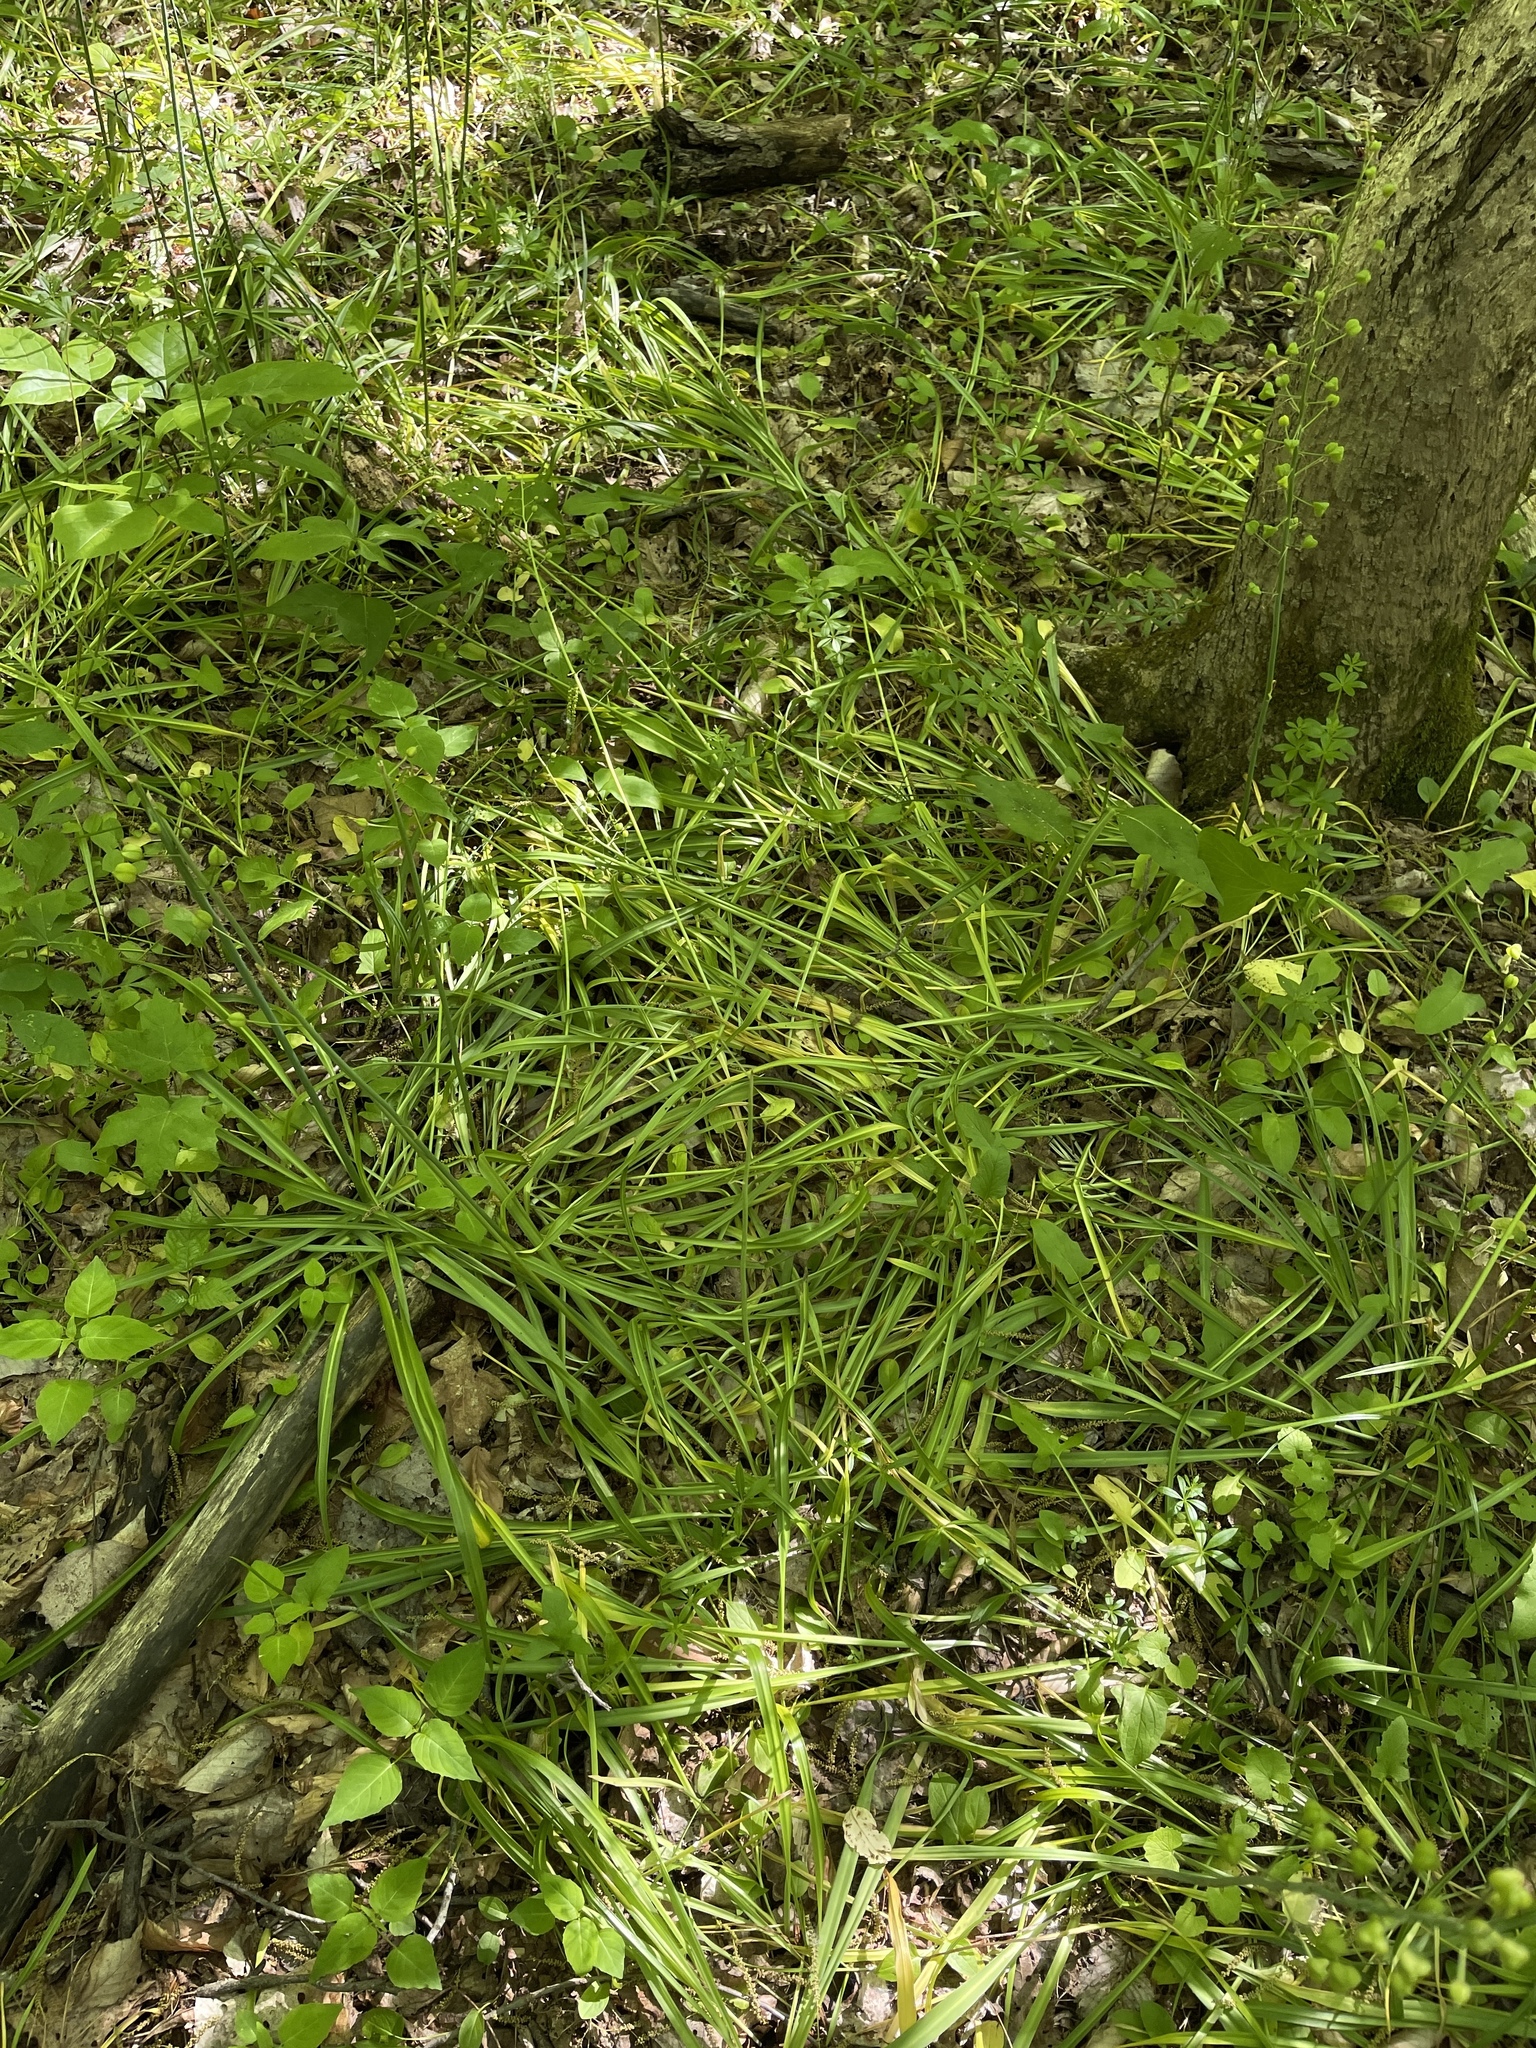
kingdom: Plantae
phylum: Tracheophyta
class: Liliopsida
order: Asparagales
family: Asparagaceae
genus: Camassia
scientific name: Camassia scilloides
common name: Wild hyacinth
